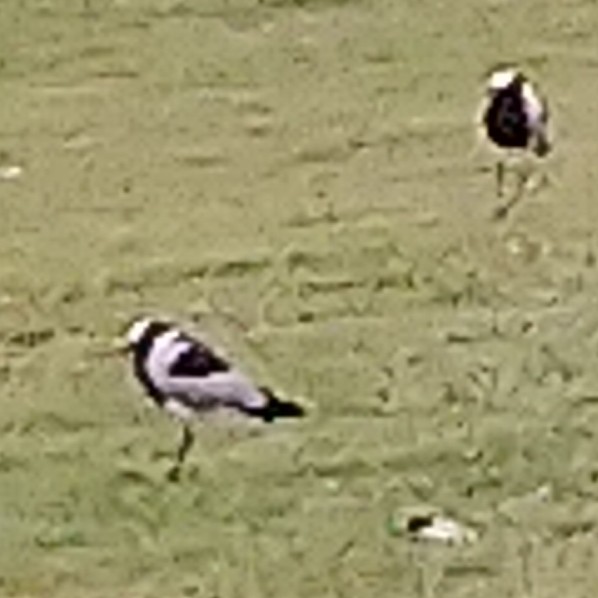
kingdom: Animalia
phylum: Chordata
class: Aves
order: Charadriiformes
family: Charadriidae
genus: Vanellus
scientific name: Vanellus armatus
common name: Blacksmith lapwing
